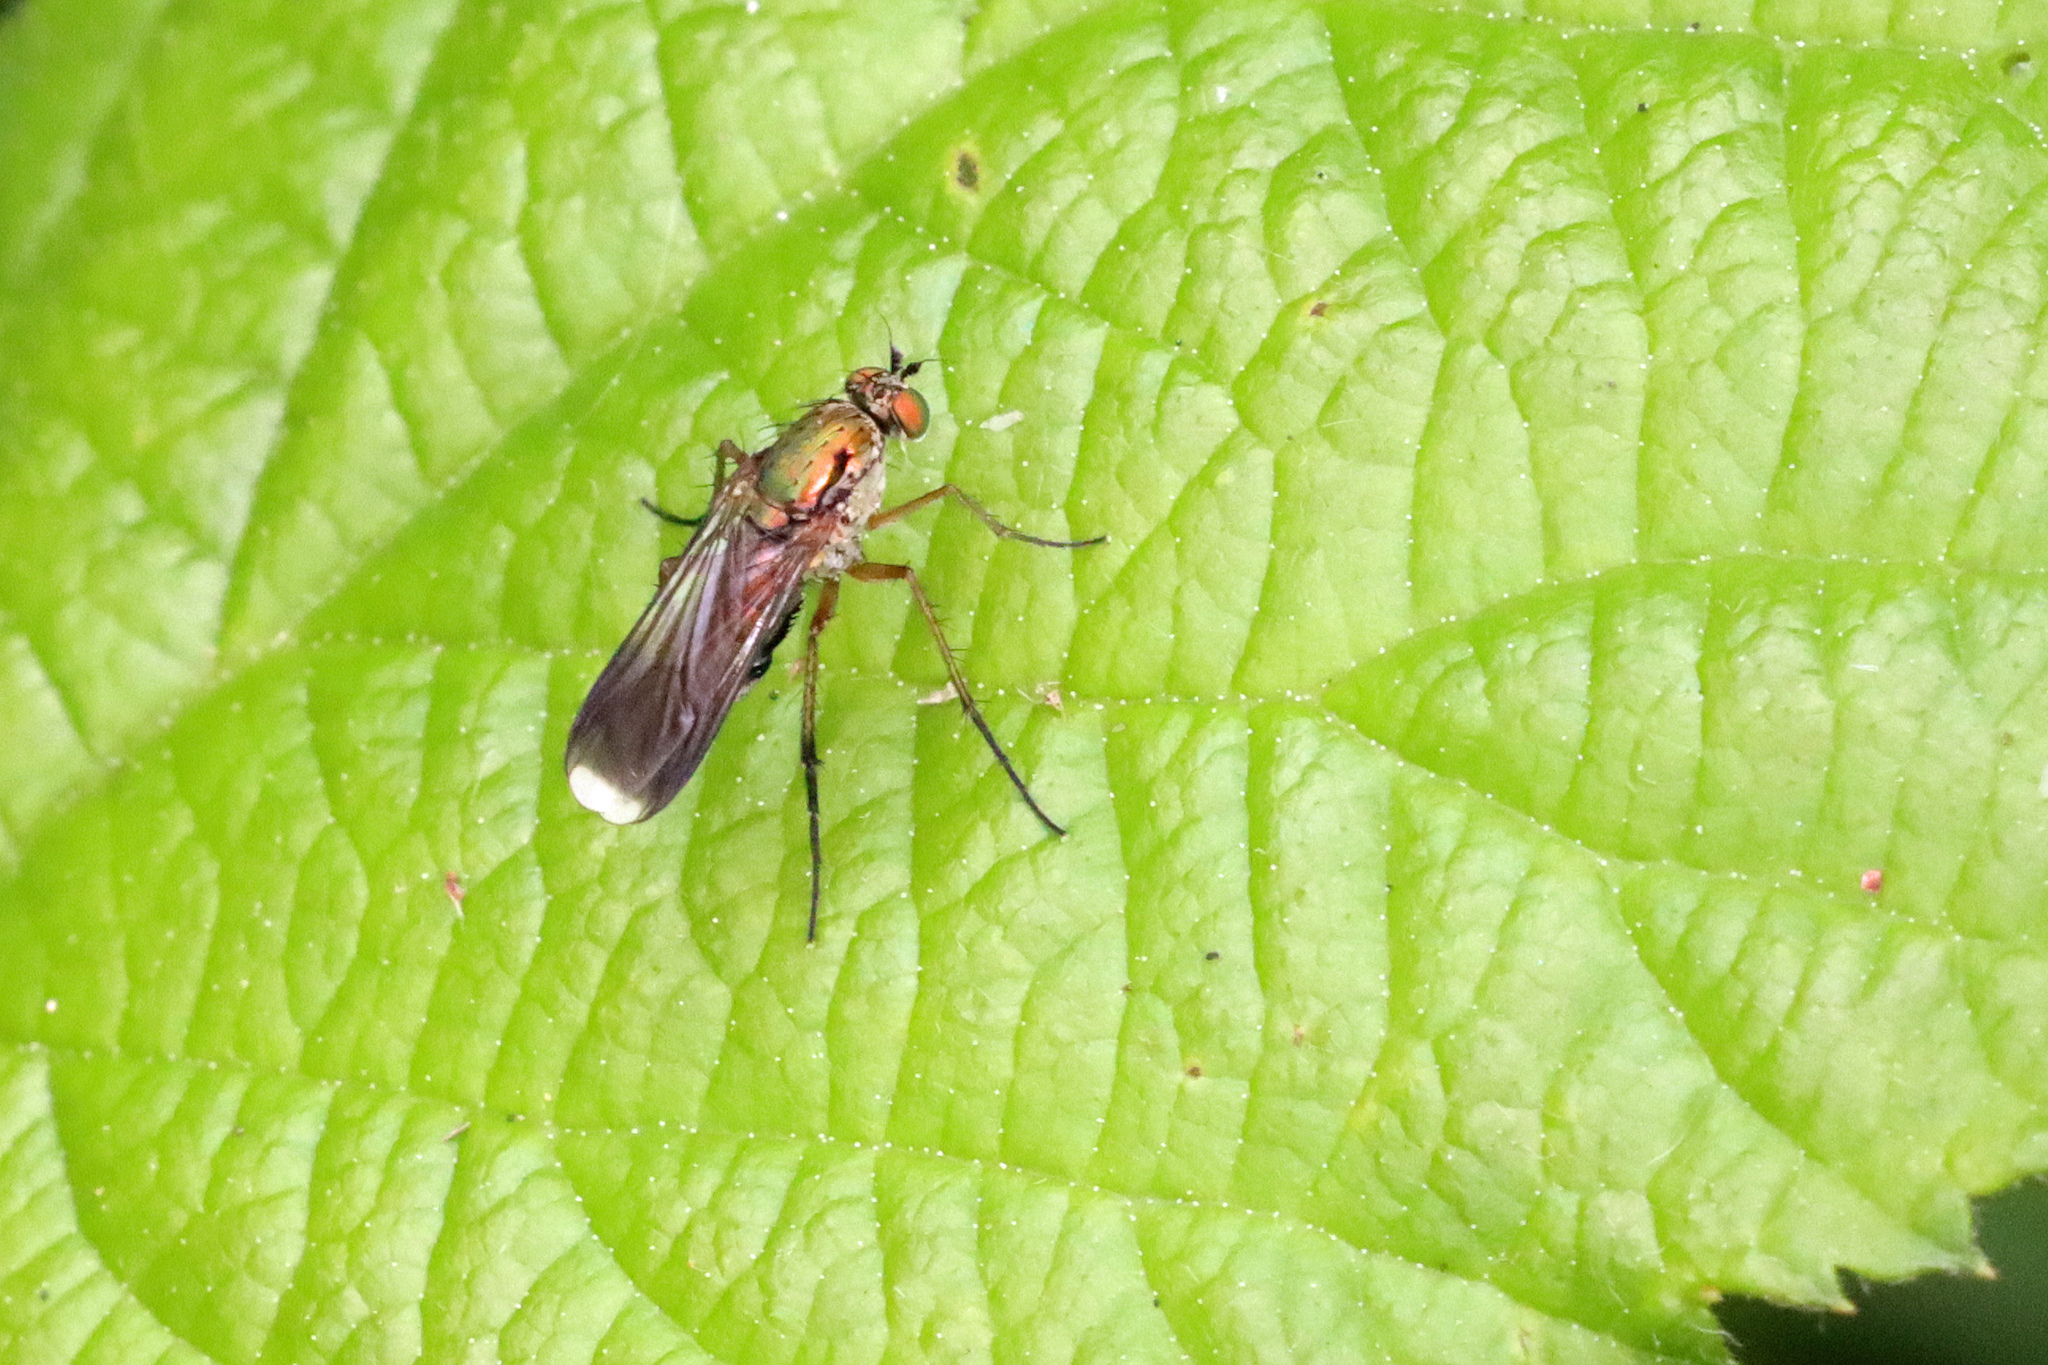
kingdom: Animalia
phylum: Arthropoda
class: Insecta
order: Diptera
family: Dolichopodidae
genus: Poecilobothrus
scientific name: Poecilobothrus nobilitatus
